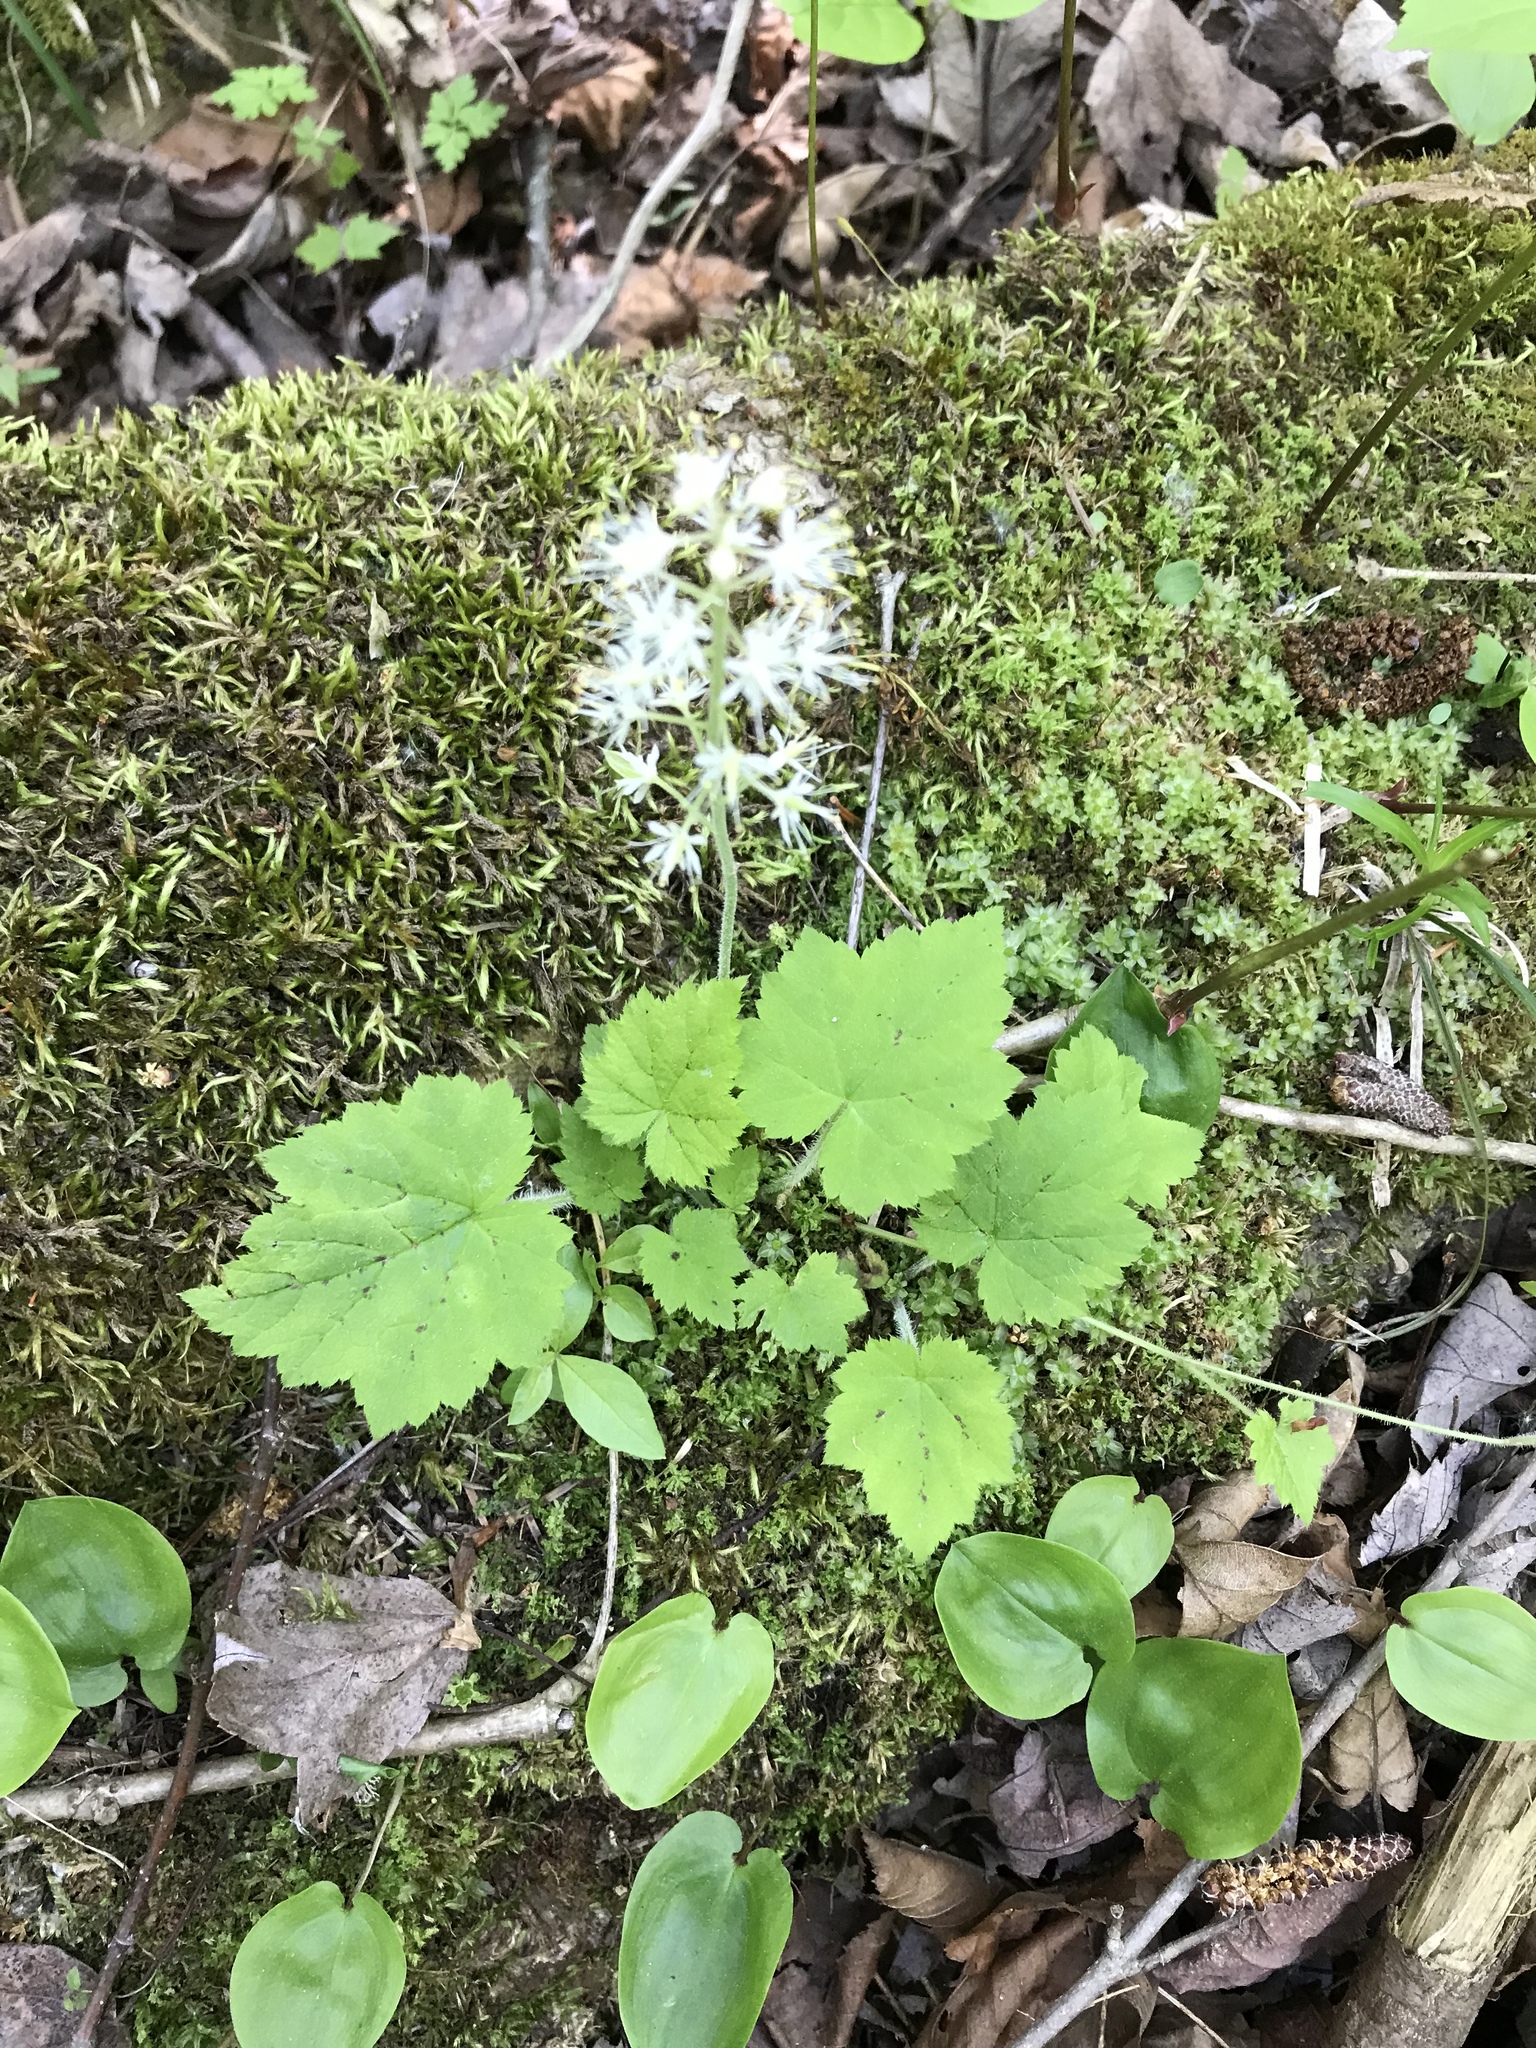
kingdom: Plantae
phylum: Tracheophyta
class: Magnoliopsida
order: Saxifragales
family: Saxifragaceae
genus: Tiarella
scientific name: Tiarella stolonifera
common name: Stoloniferous foamflower
